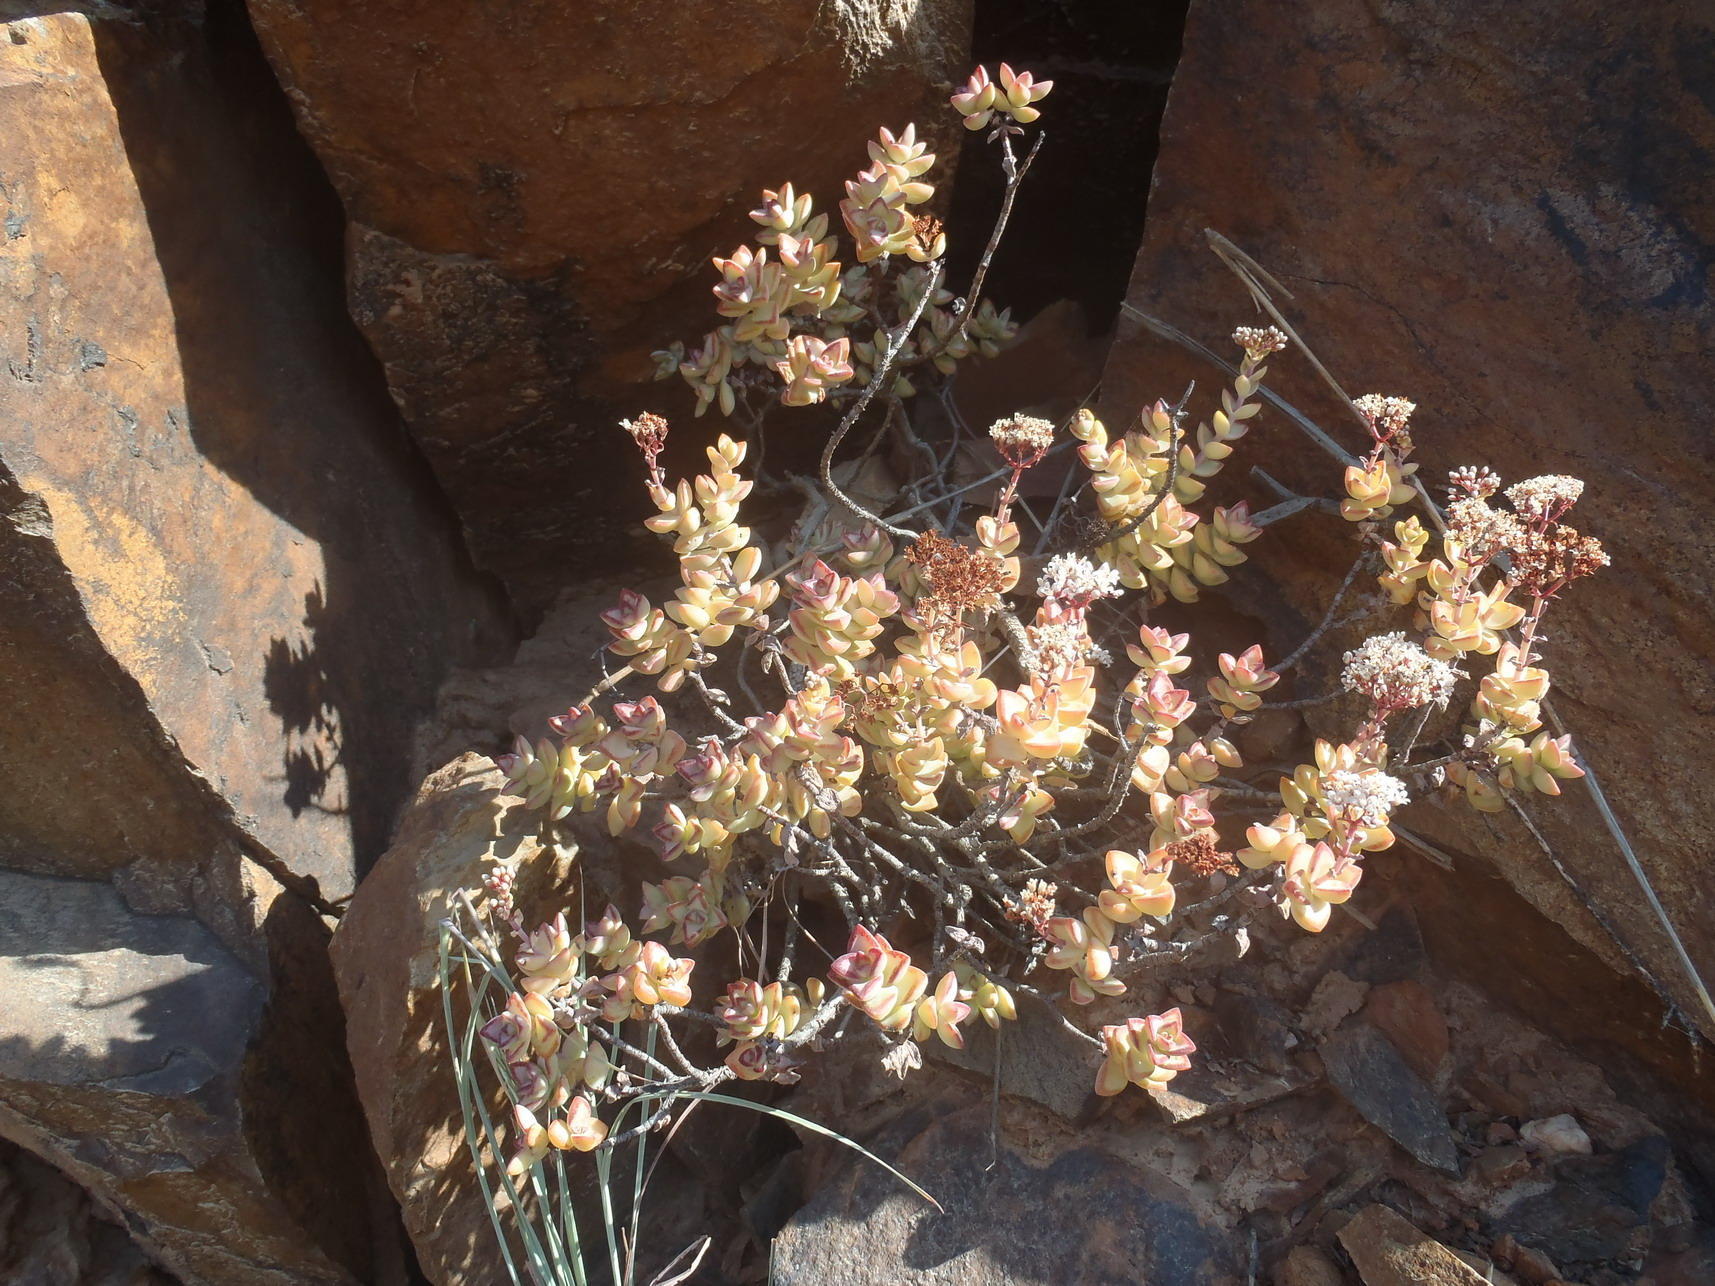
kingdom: Plantae
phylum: Tracheophyta
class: Magnoliopsida
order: Saxifragales
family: Crassulaceae
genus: Crassula
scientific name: Crassula rupestris
